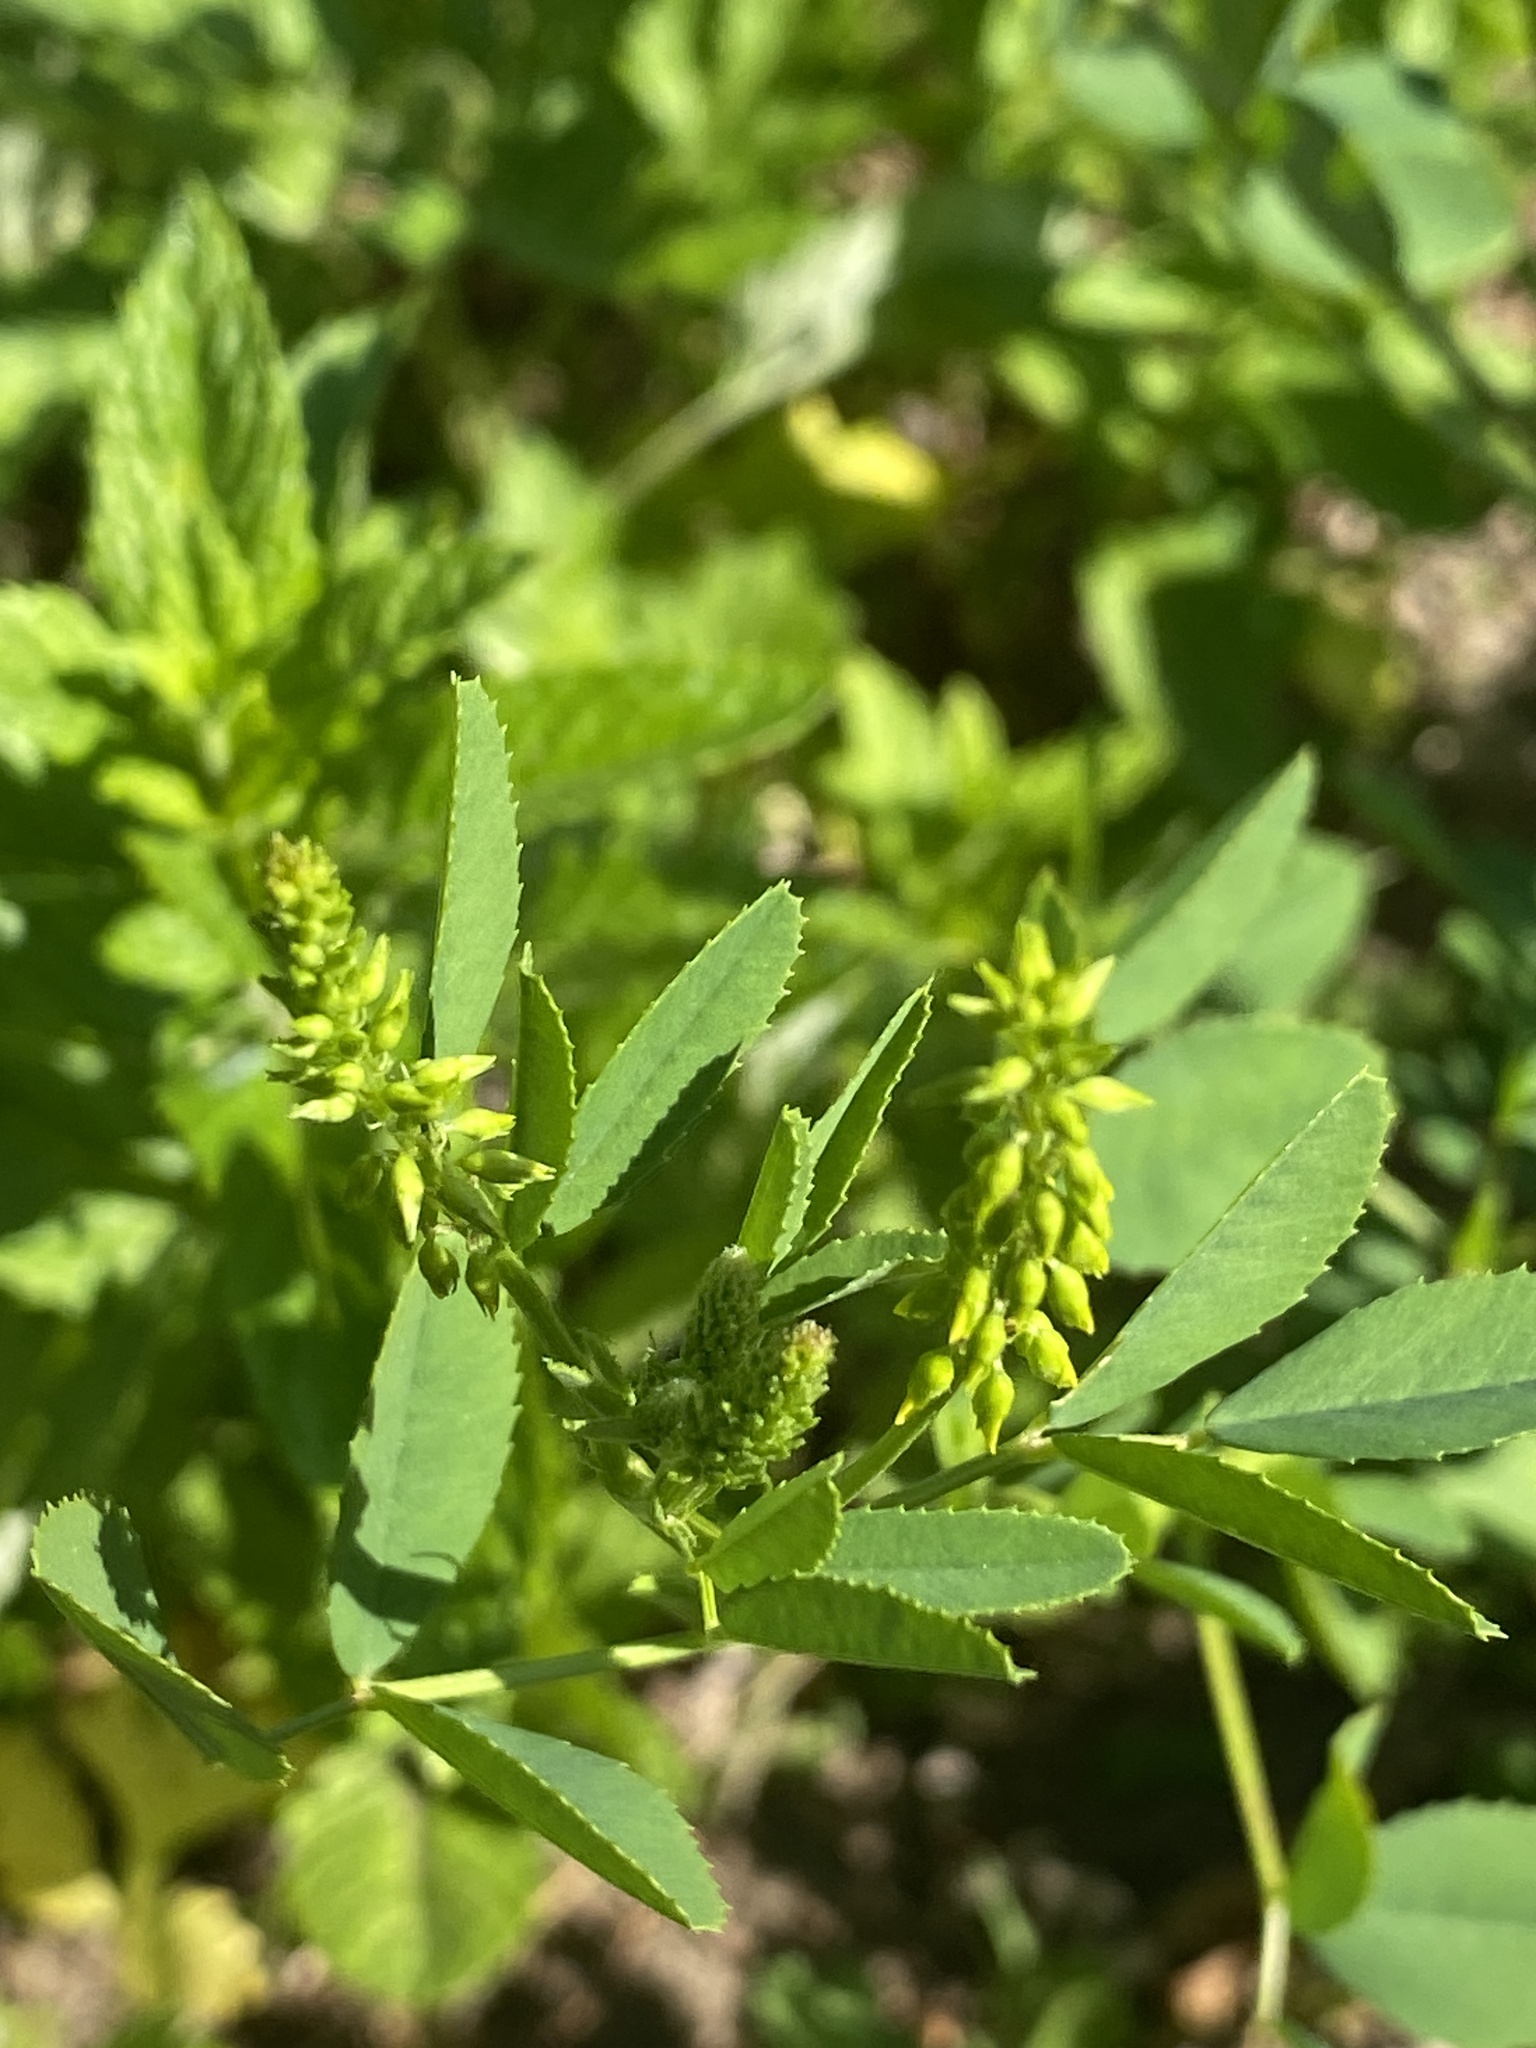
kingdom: Plantae
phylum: Tracheophyta
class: Magnoliopsida
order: Fabales
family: Fabaceae
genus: Melilotus
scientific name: Melilotus officinalis
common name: Sweetclover
